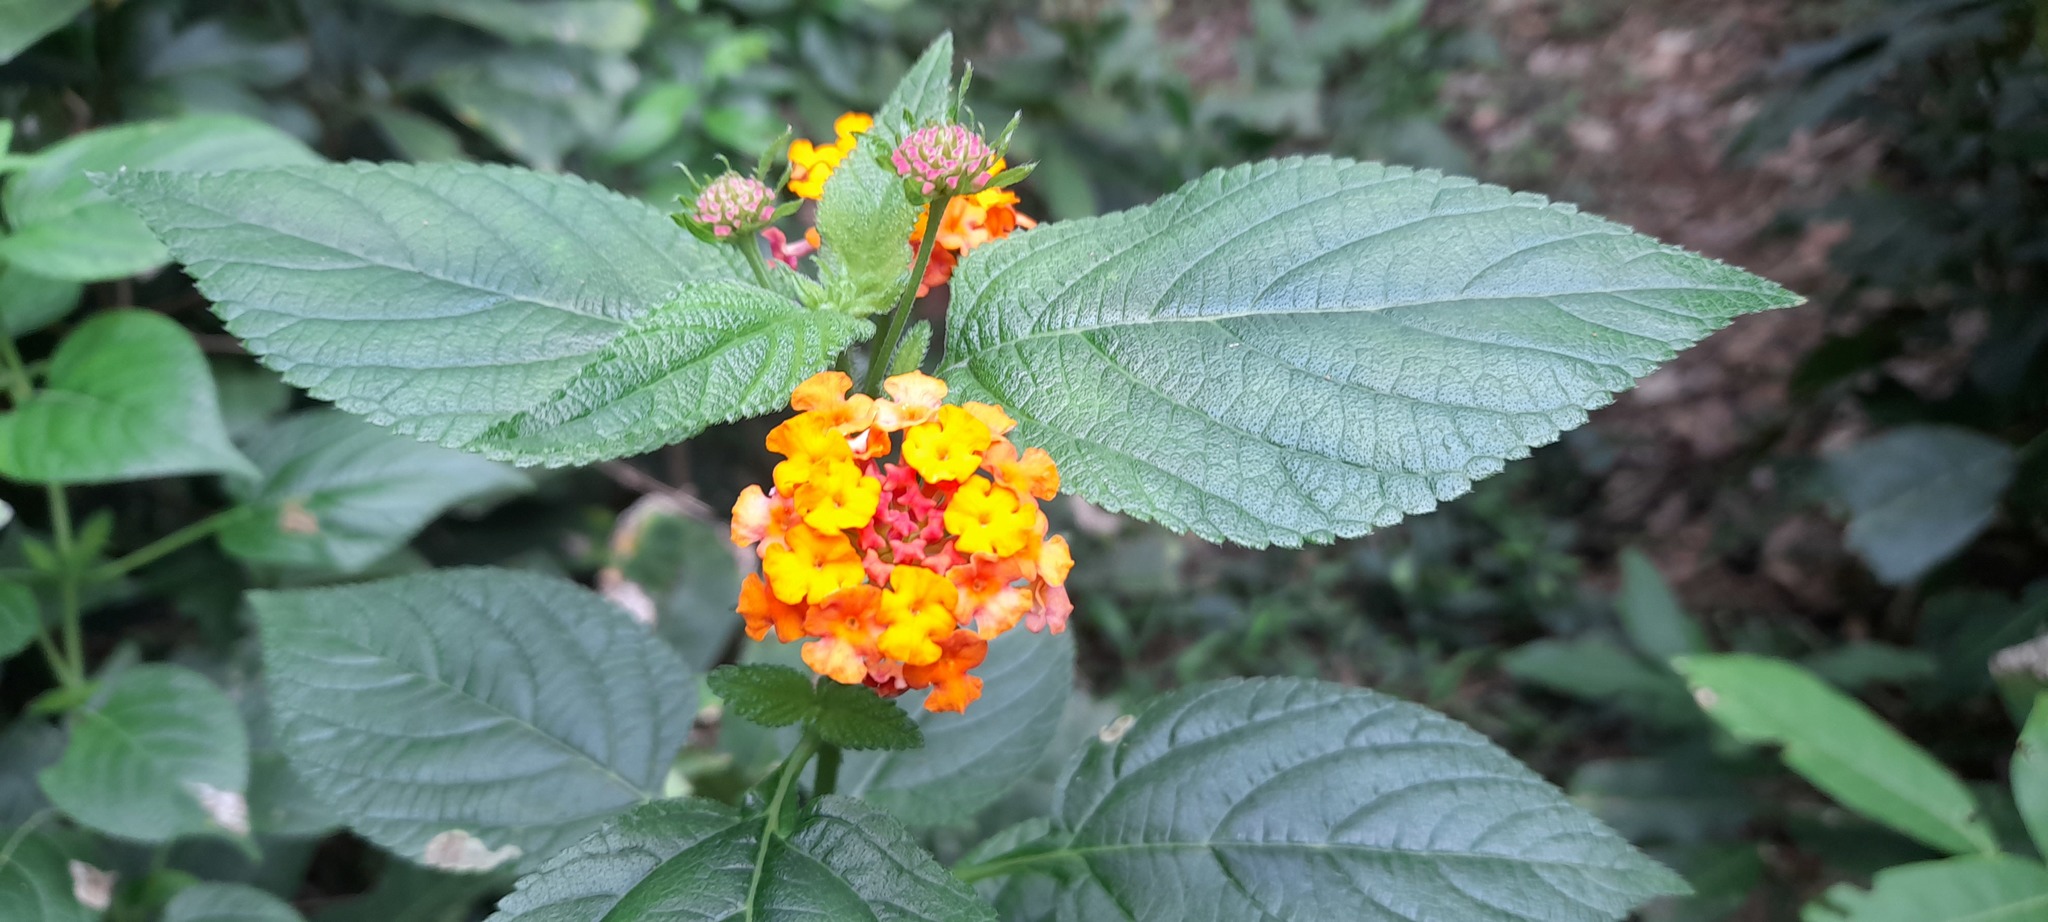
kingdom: Plantae
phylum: Tracheophyta
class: Magnoliopsida
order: Lamiales
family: Verbenaceae
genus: Lantana
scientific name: Lantana camara
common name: Lantana
